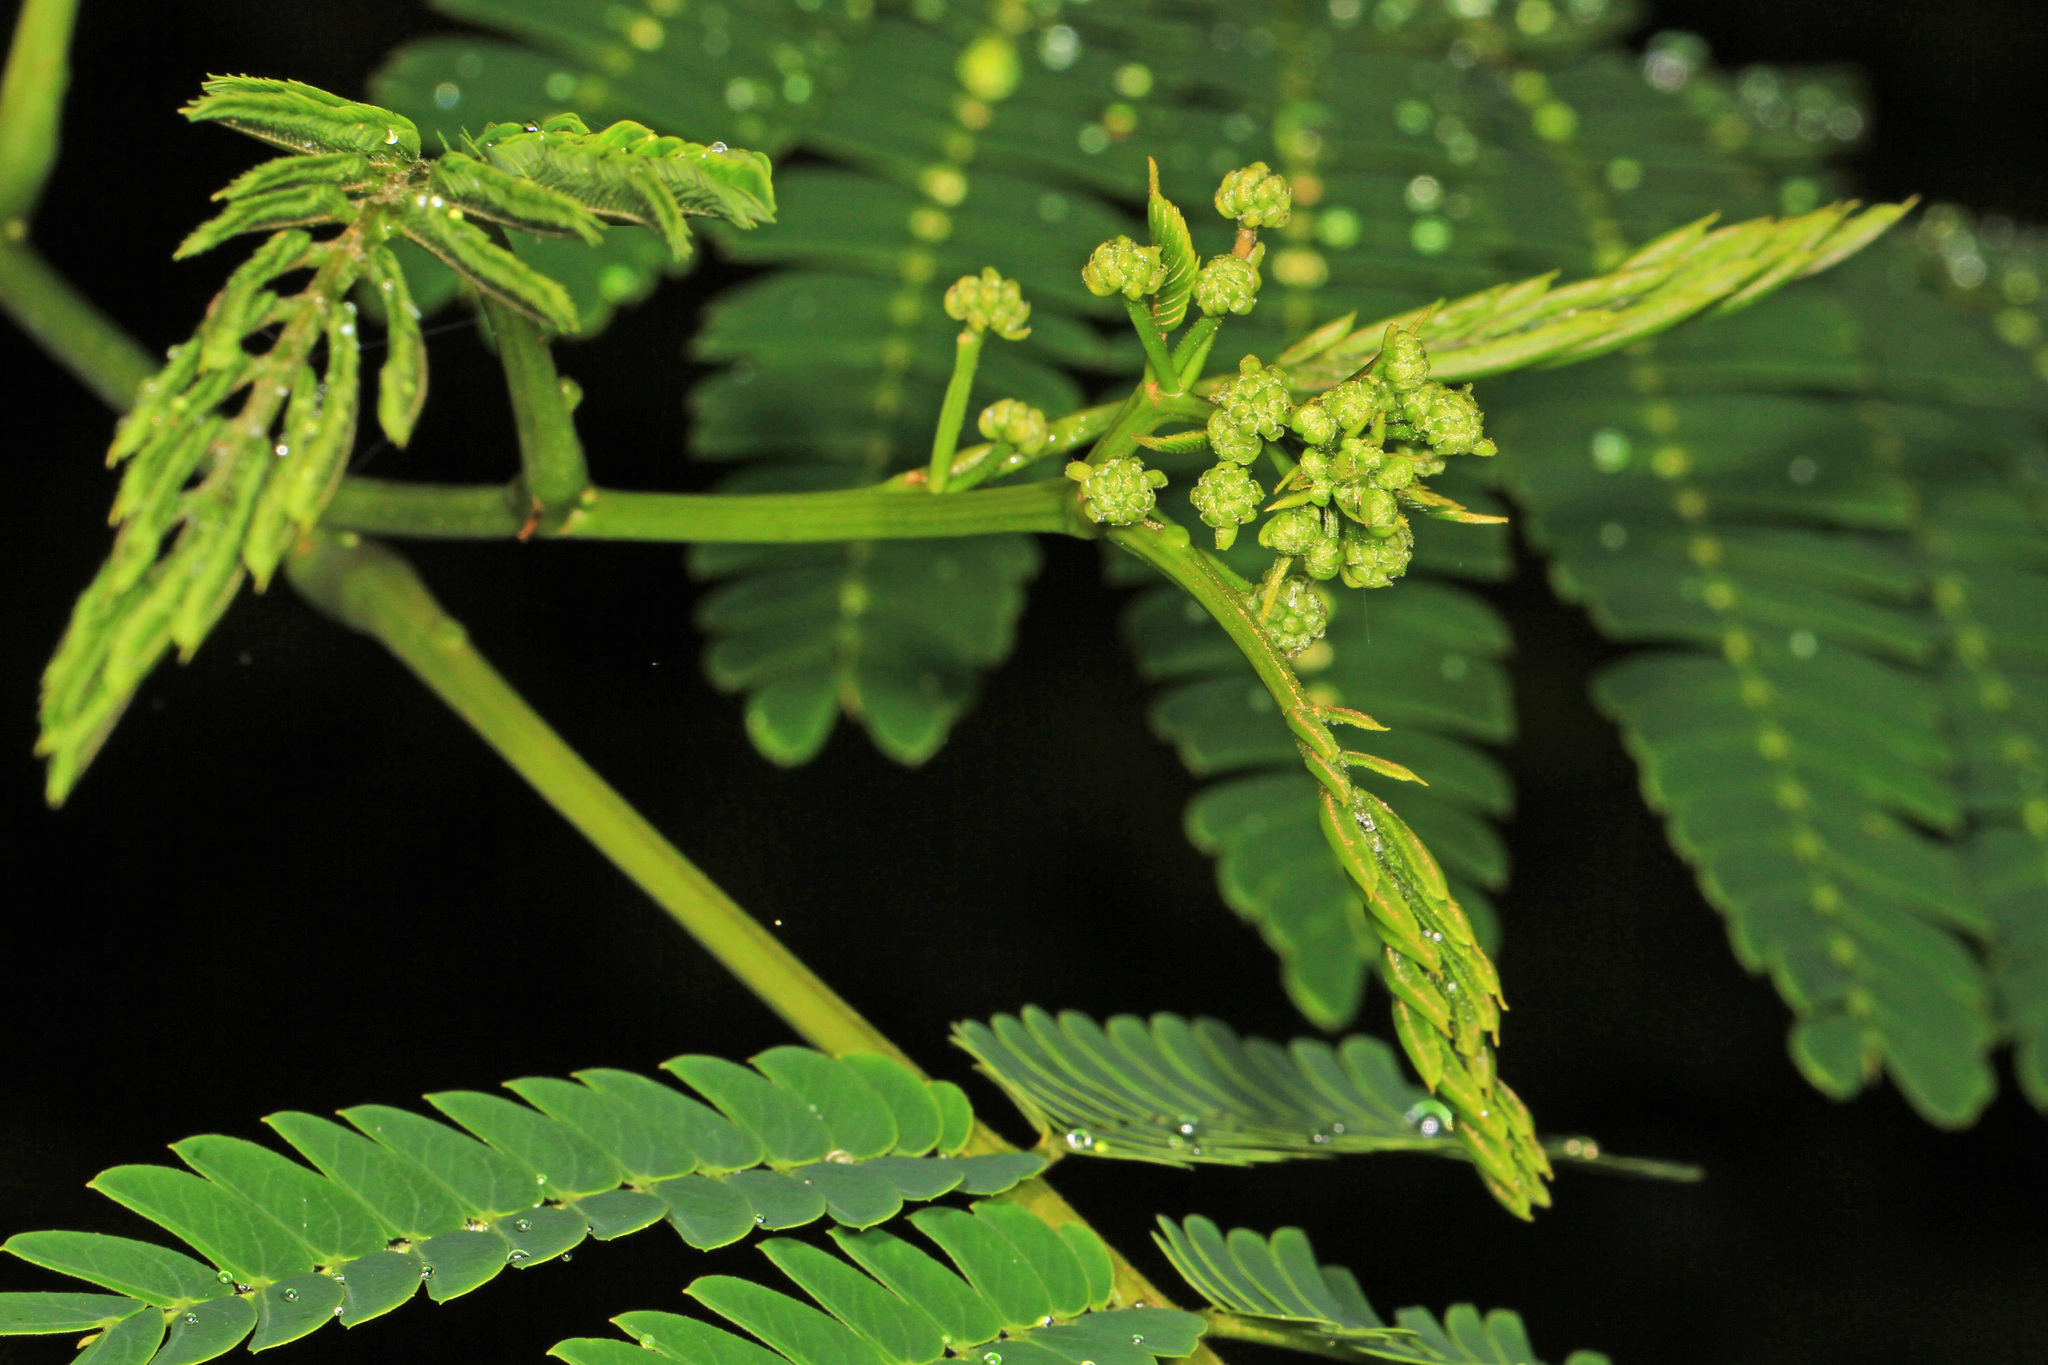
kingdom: Plantae
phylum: Tracheophyta
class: Magnoliopsida
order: Fabales
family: Fabaceae
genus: Albizia
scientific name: Albizia julibrissin
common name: Silktree
